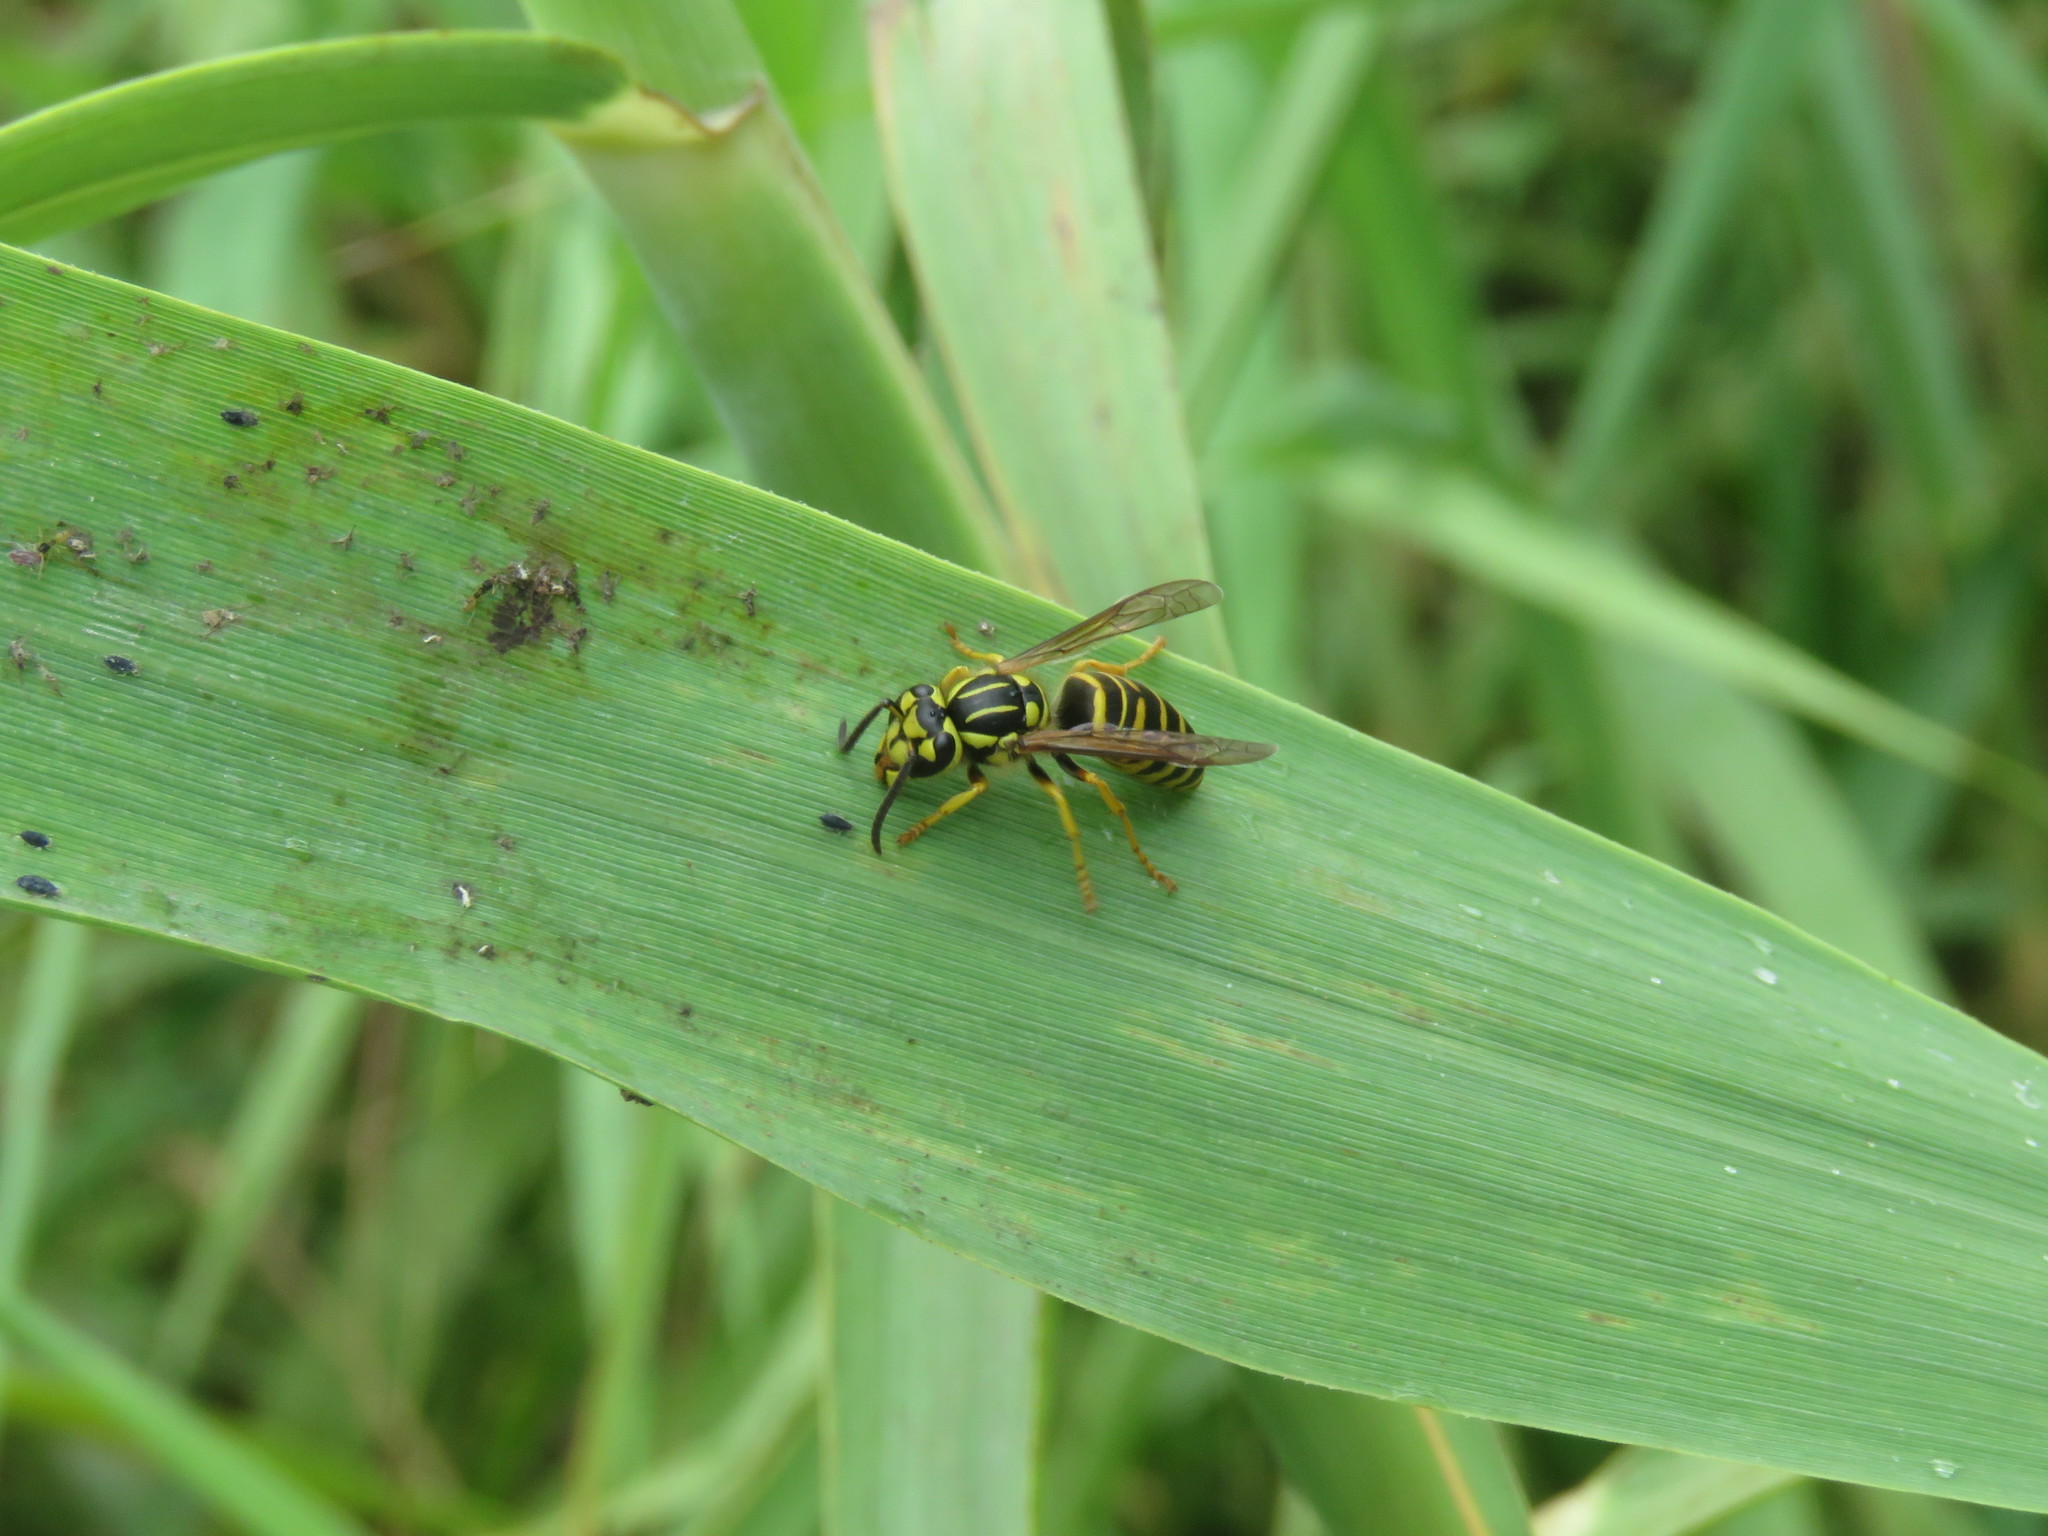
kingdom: Animalia
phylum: Arthropoda
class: Insecta
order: Hymenoptera
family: Vespidae
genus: Vespula
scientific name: Vespula squamosa
